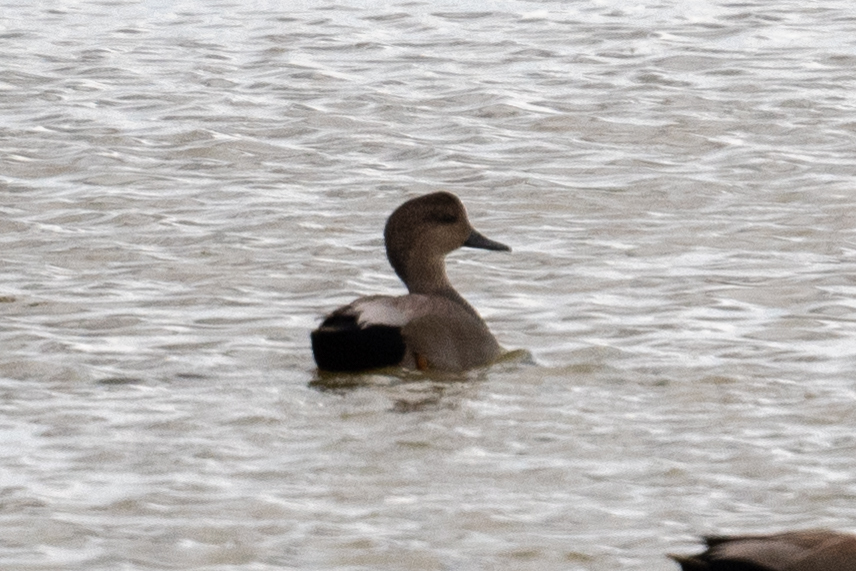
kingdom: Animalia
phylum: Chordata
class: Aves
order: Anseriformes
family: Anatidae
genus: Mareca
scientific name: Mareca strepera
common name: Gadwall
